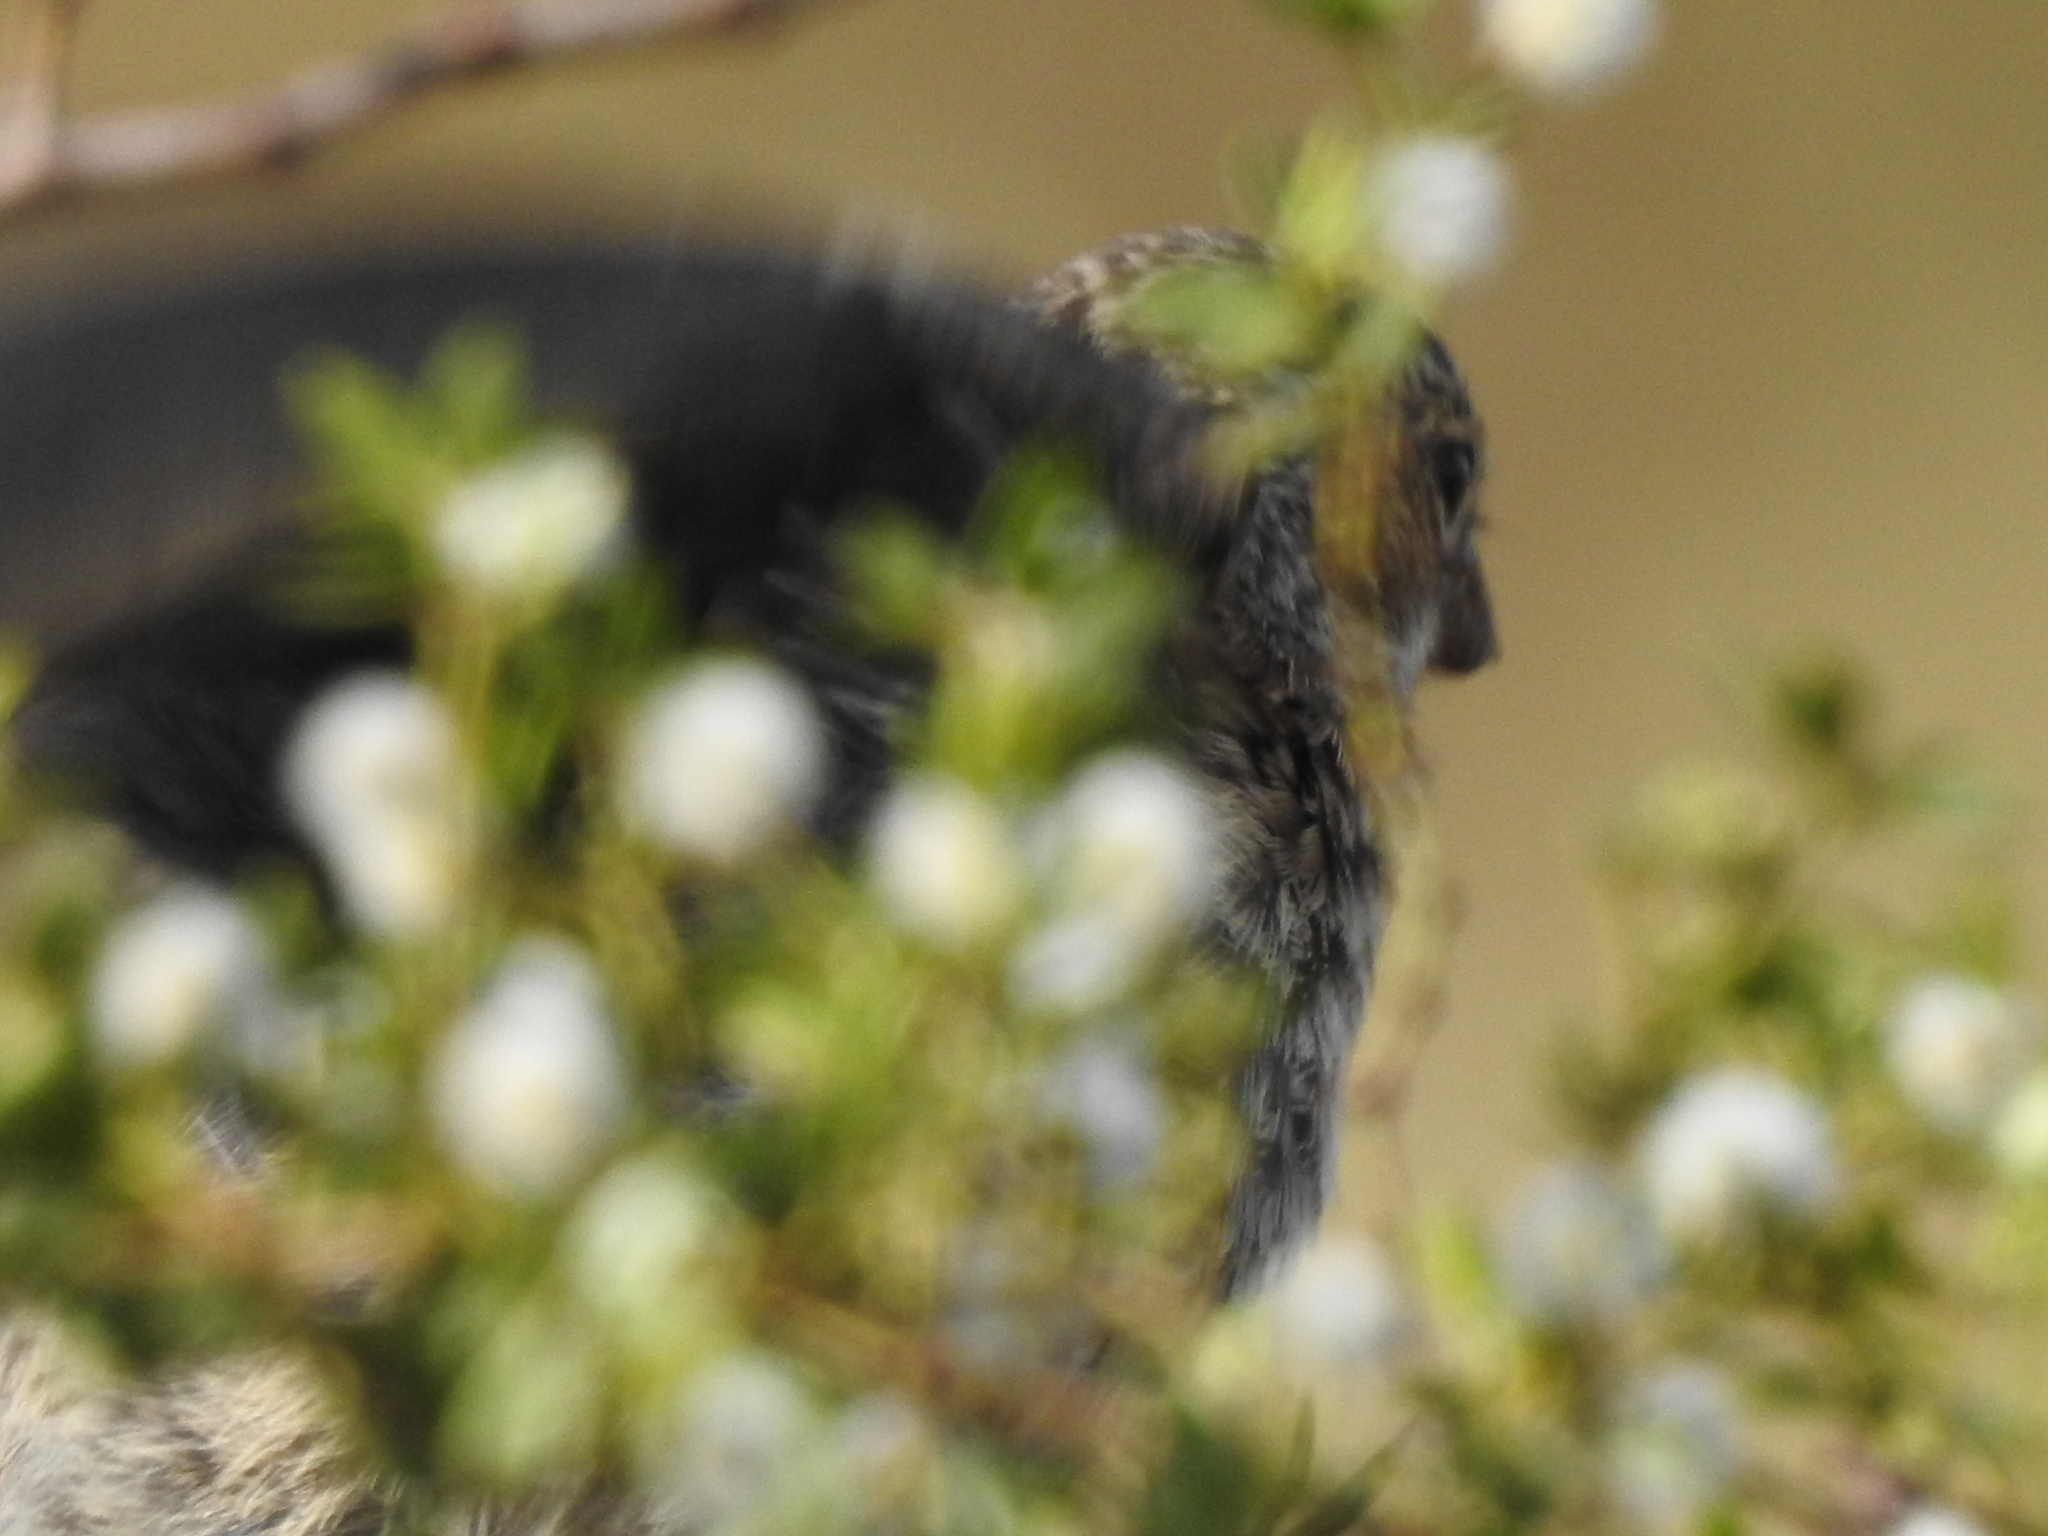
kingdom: Animalia
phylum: Chordata
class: Aves
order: Passeriformes
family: Thraupidae
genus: Rhopospina
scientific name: Rhopospina fruticeti
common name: Mourning sierra finch
